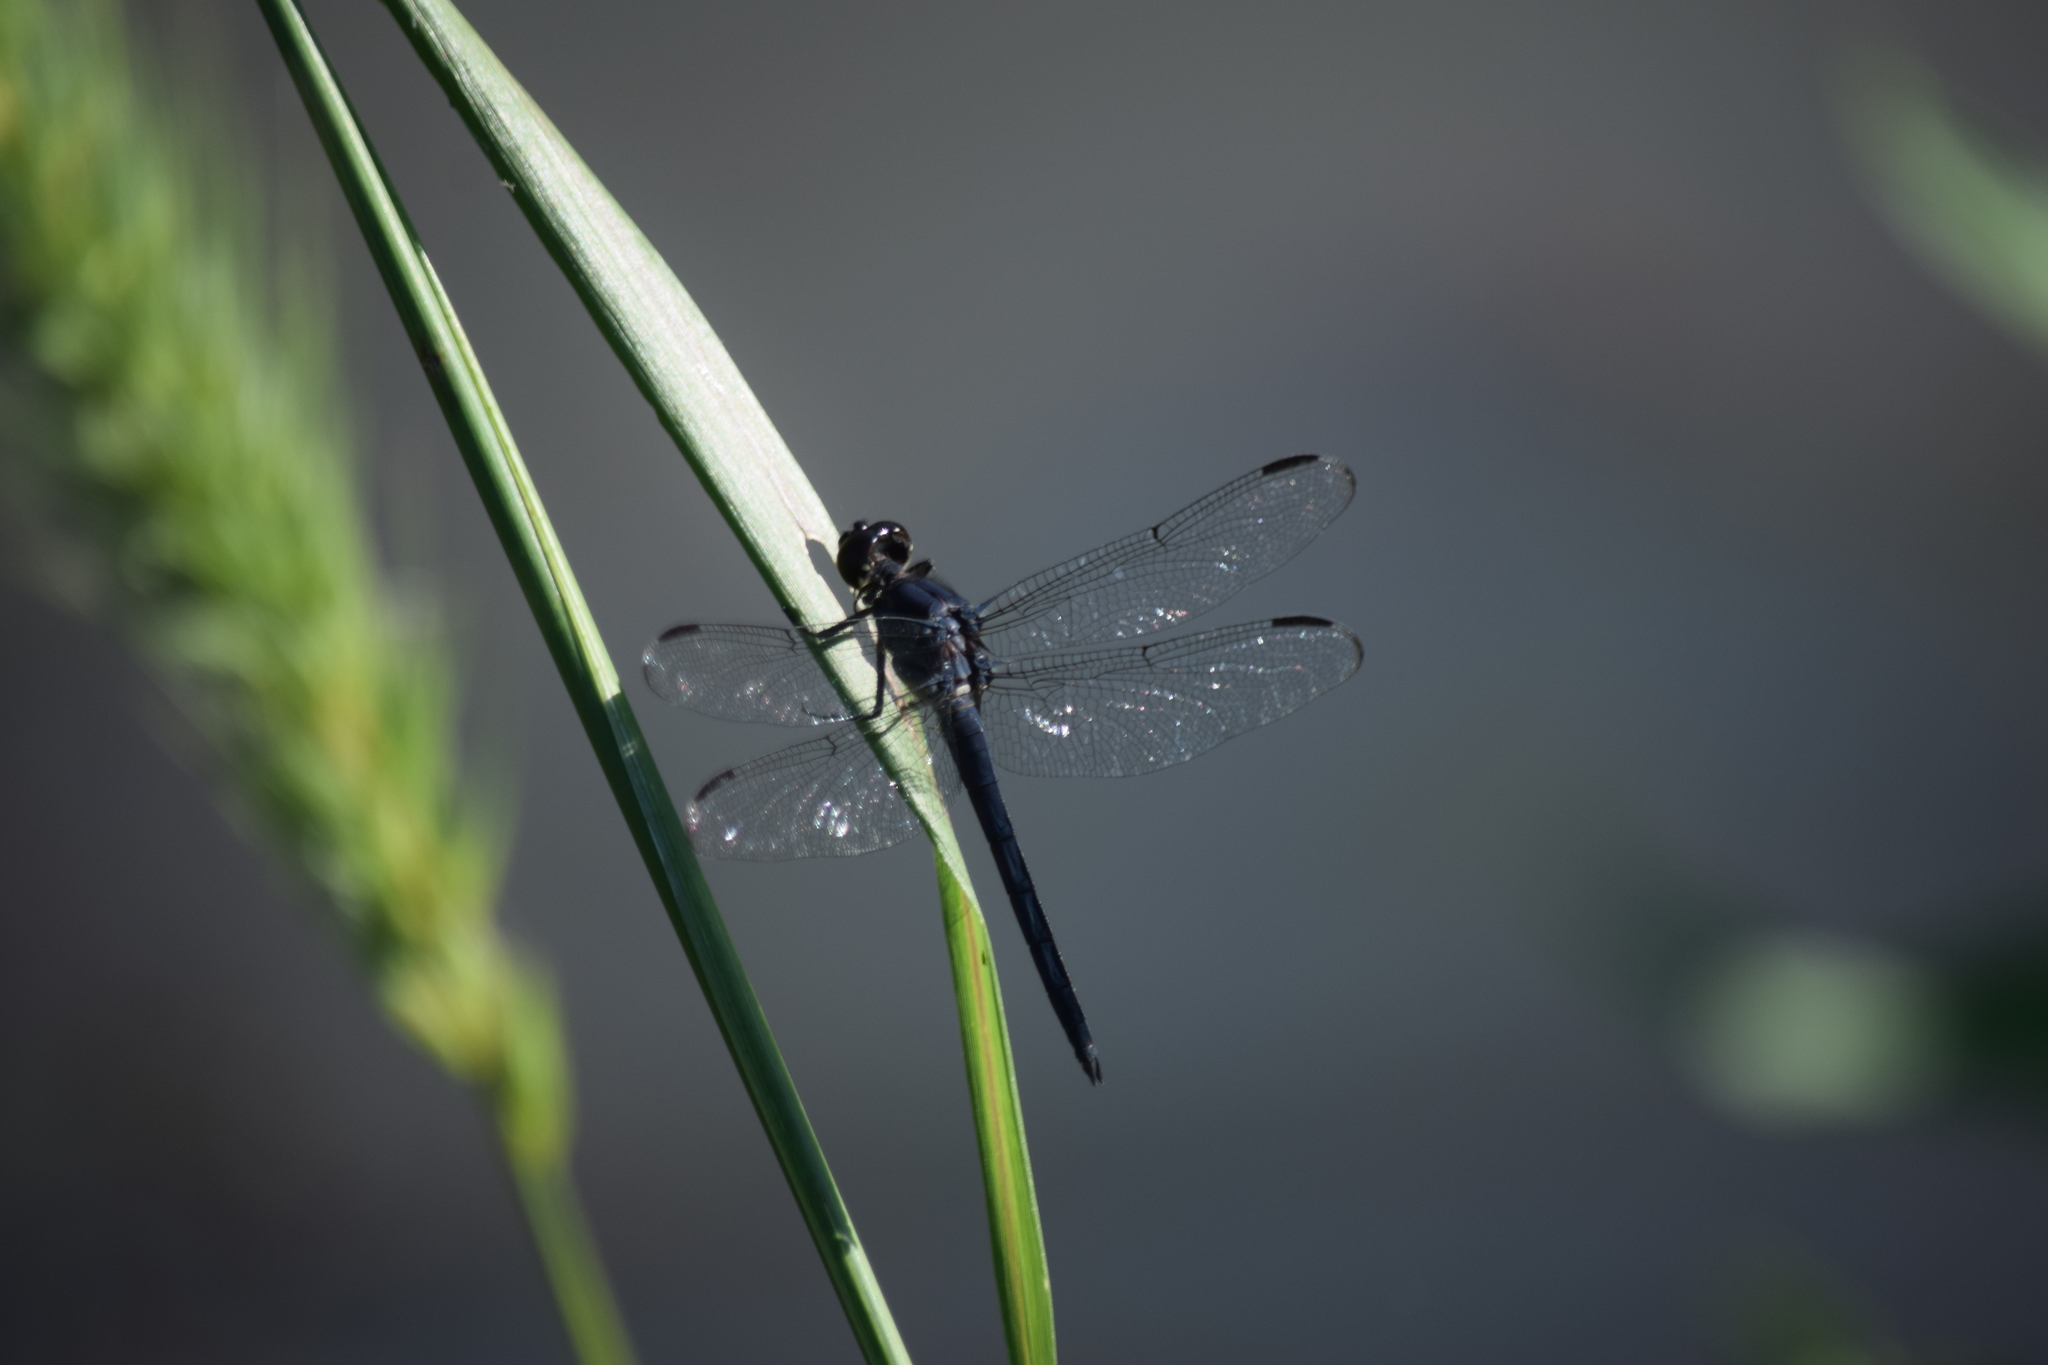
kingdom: Animalia
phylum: Arthropoda
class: Insecta
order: Odonata
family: Libellulidae
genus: Libellula
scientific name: Libellula incesta
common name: Slaty skimmer
